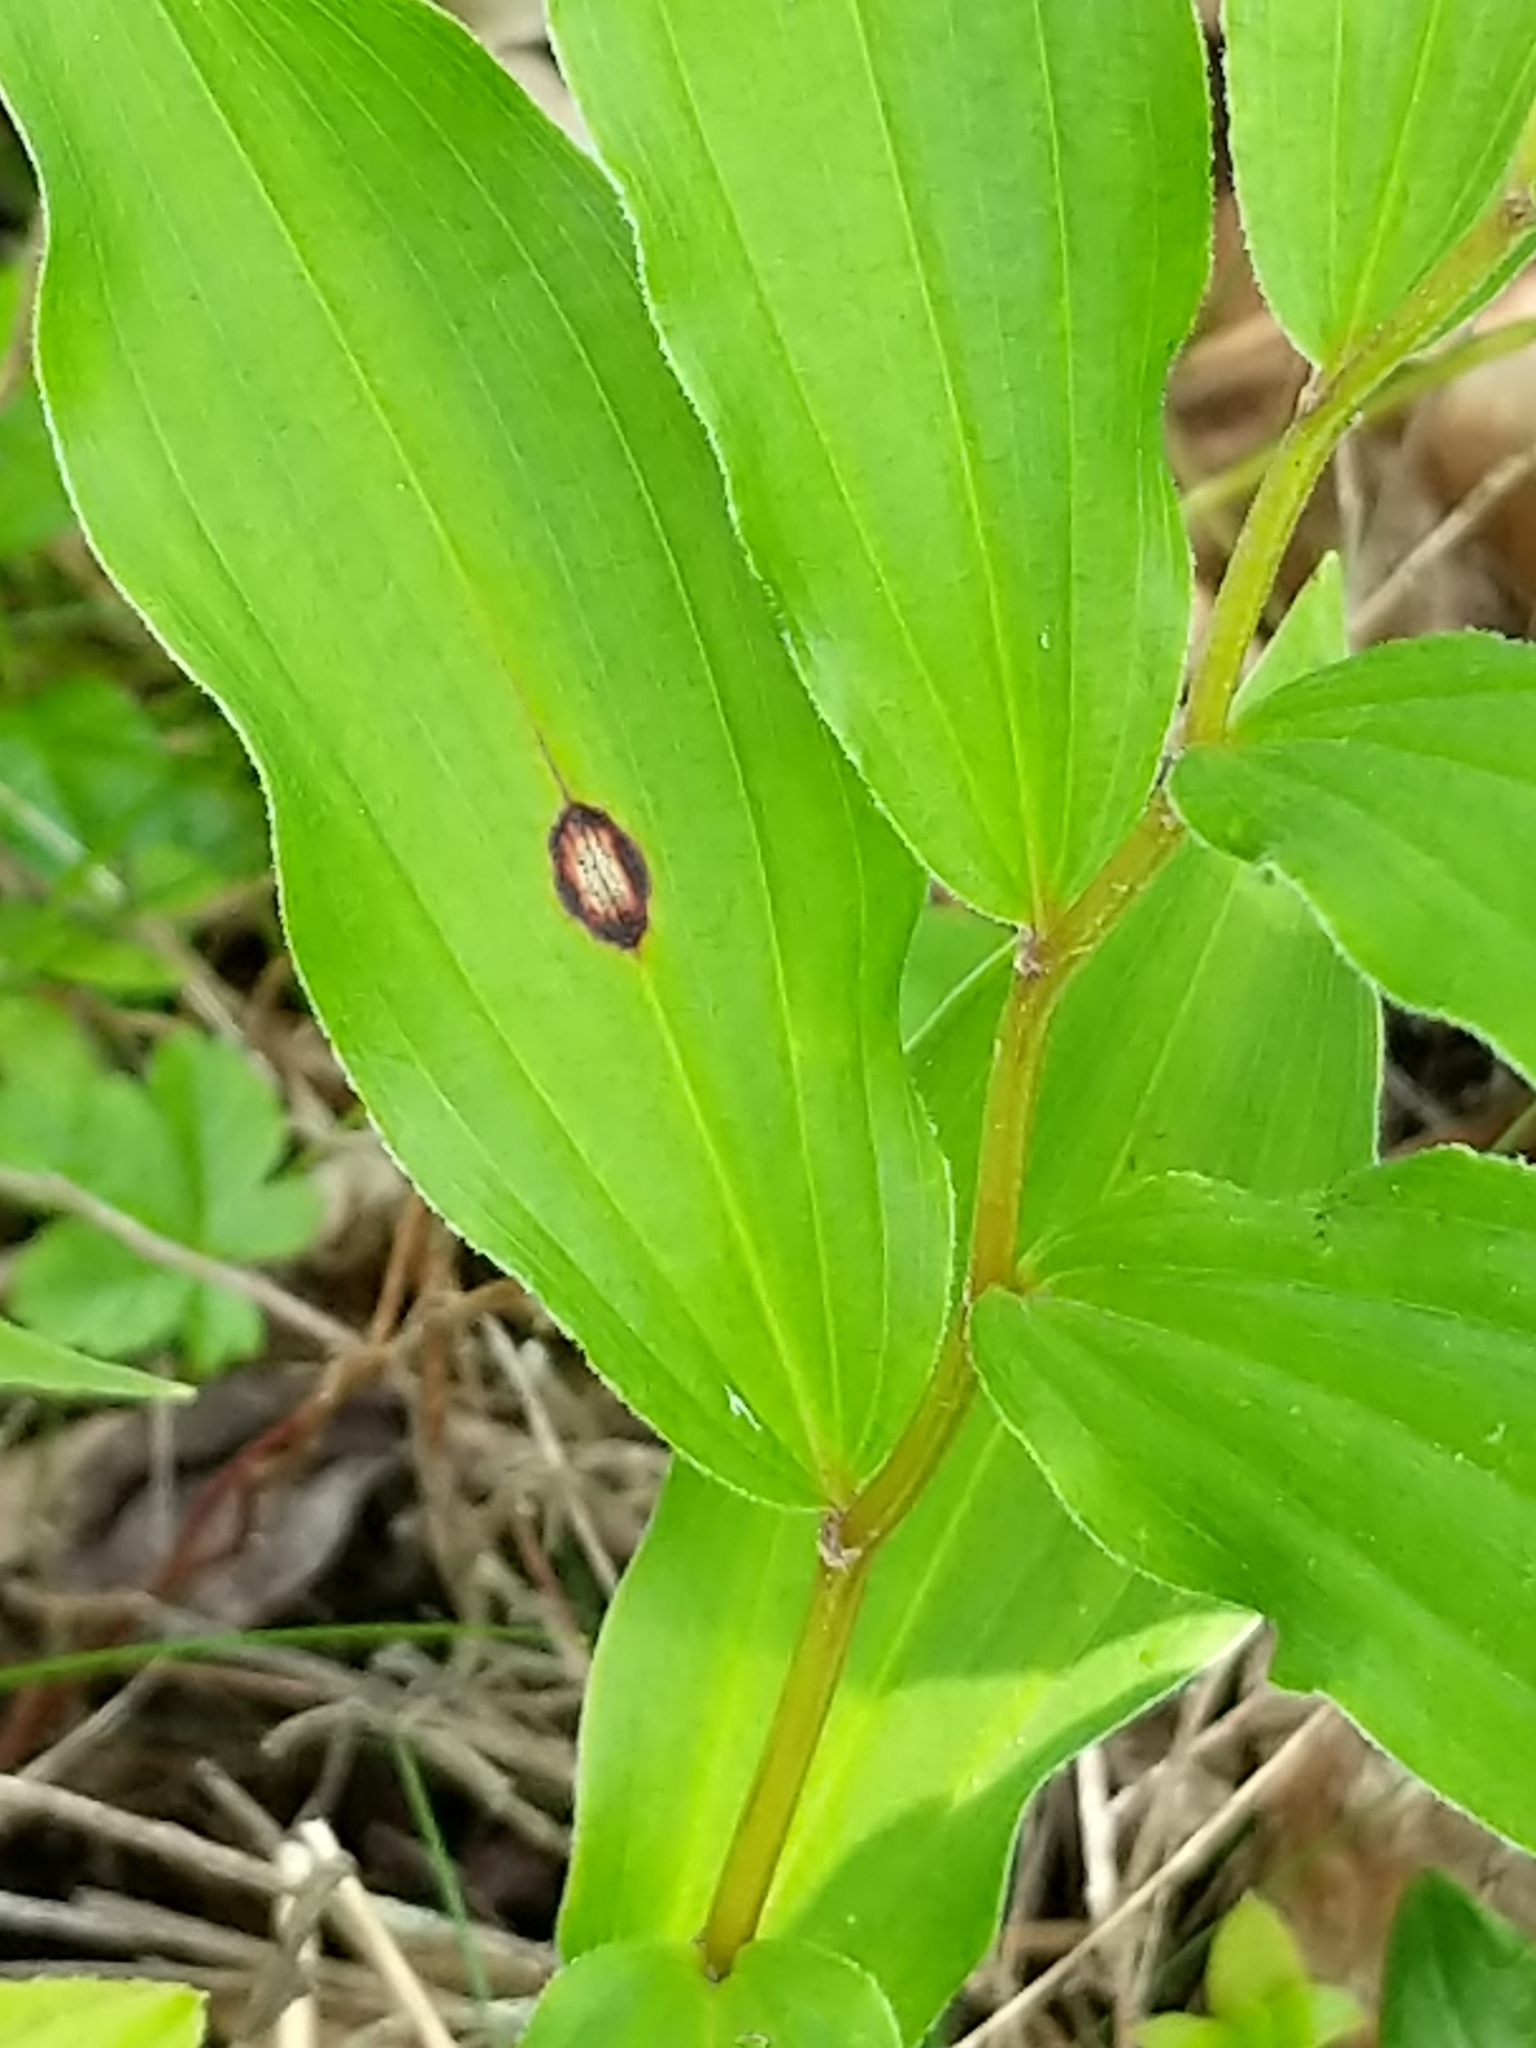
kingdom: Fungi
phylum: Ascomycota
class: Dothideomycetes
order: Botryosphaeriales
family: Phyllostictaceae
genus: Phyllosticta
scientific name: Phyllosticta convallariae
